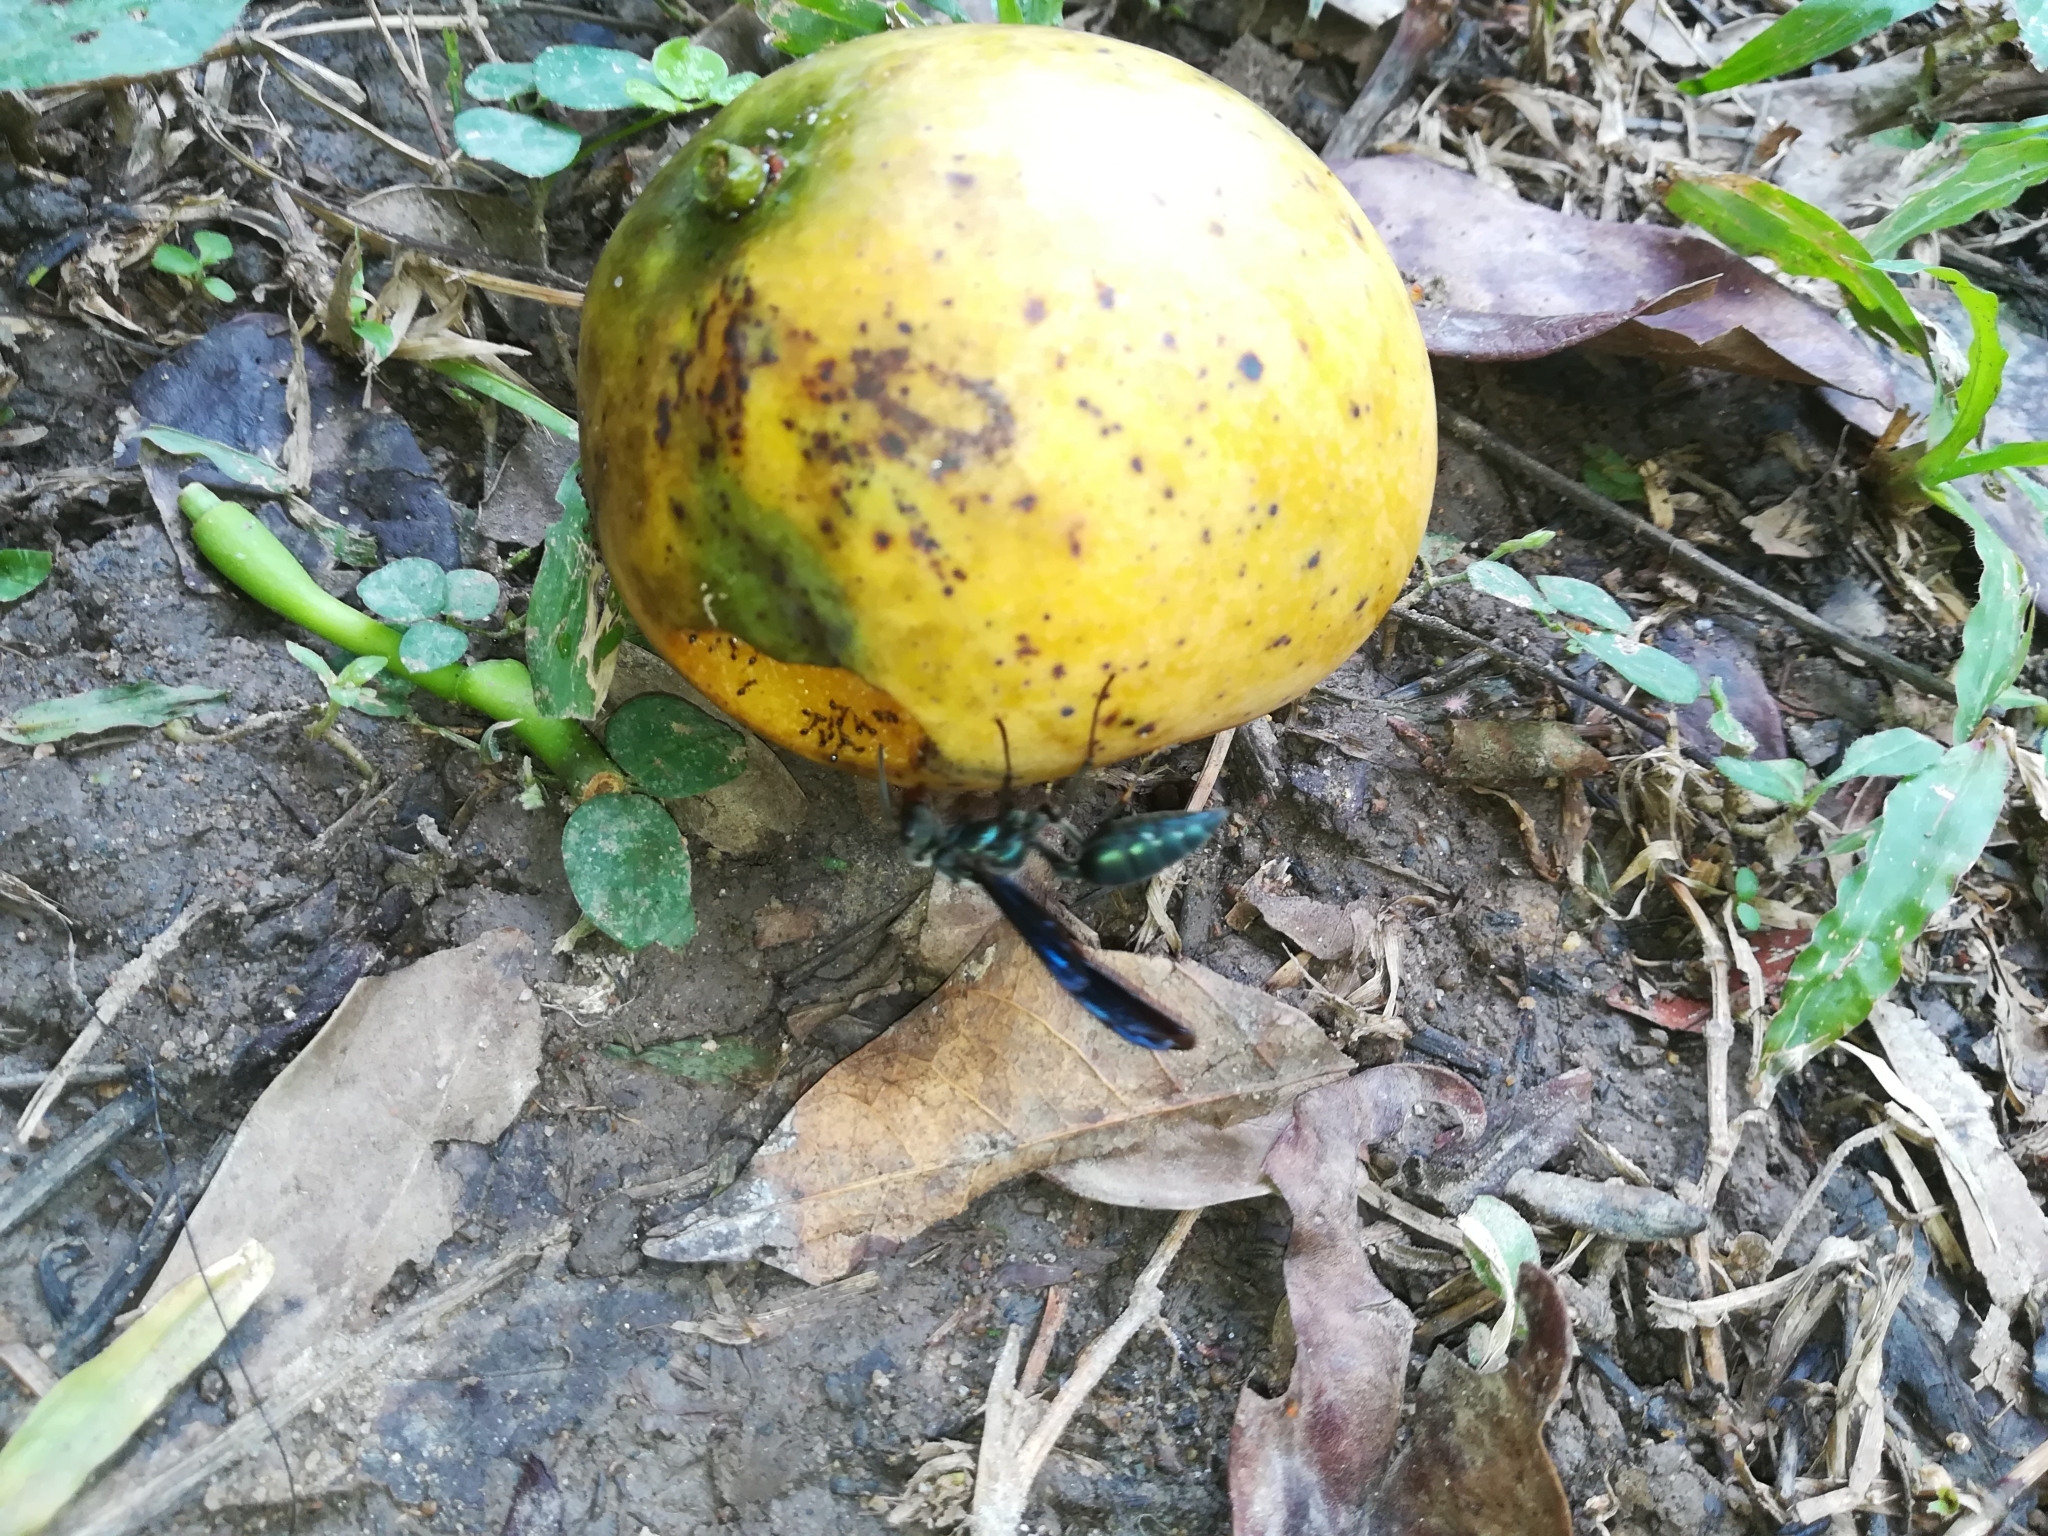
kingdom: Animalia
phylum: Arthropoda
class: Insecta
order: Hymenoptera
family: Vespidae
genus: Synoeca
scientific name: Synoeca septentrionalis
